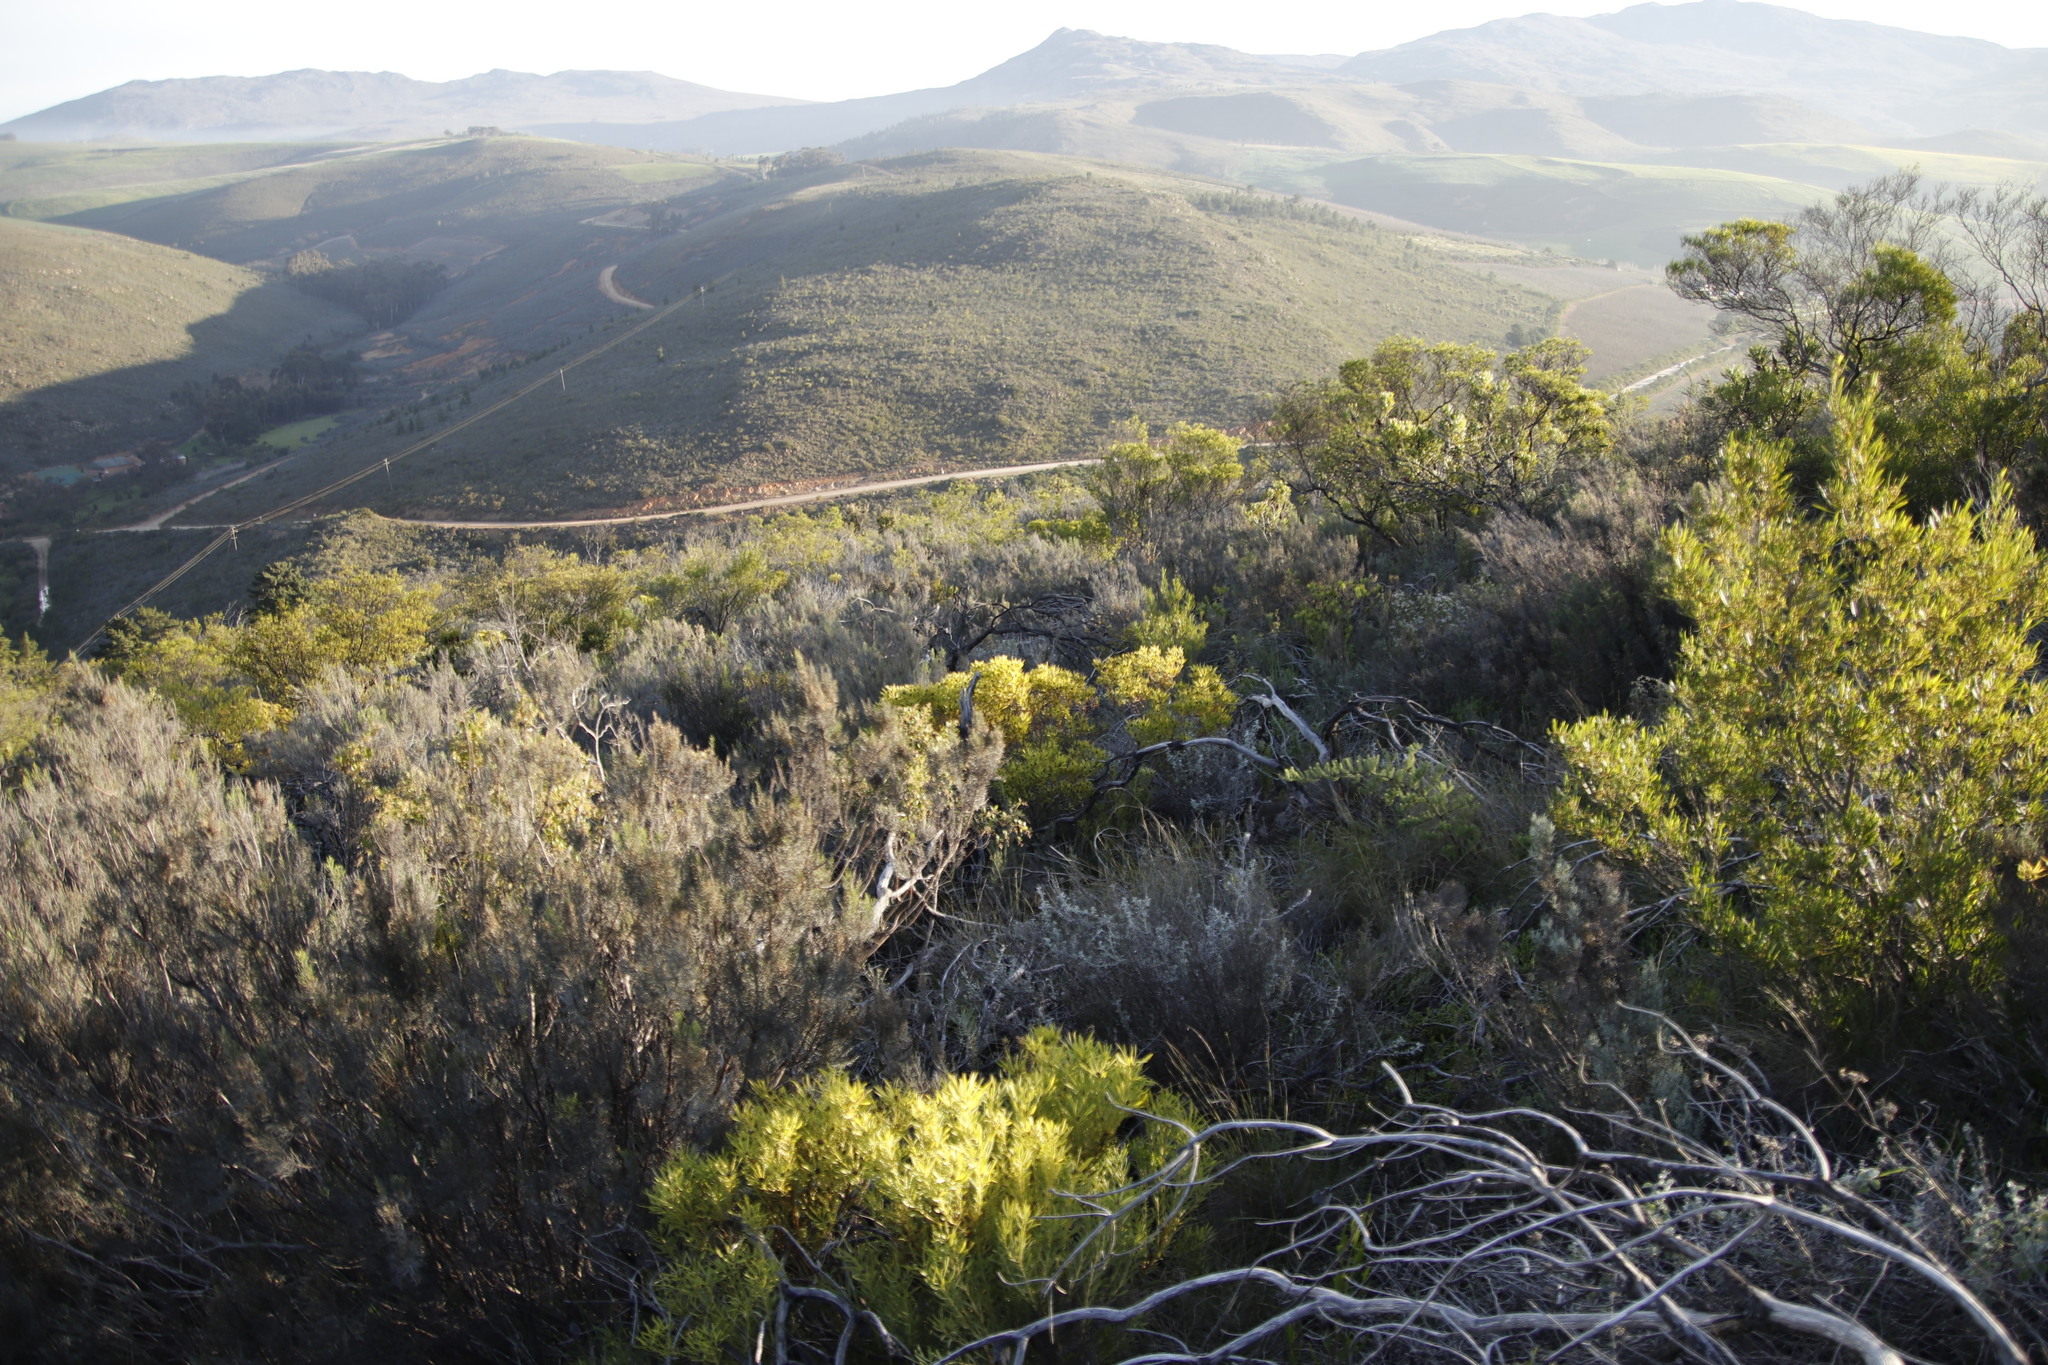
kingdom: Plantae
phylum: Tracheophyta
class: Magnoliopsida
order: Proteales
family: Proteaceae
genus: Leucadendron
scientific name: Leucadendron salignum
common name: Common sunshine conebush
